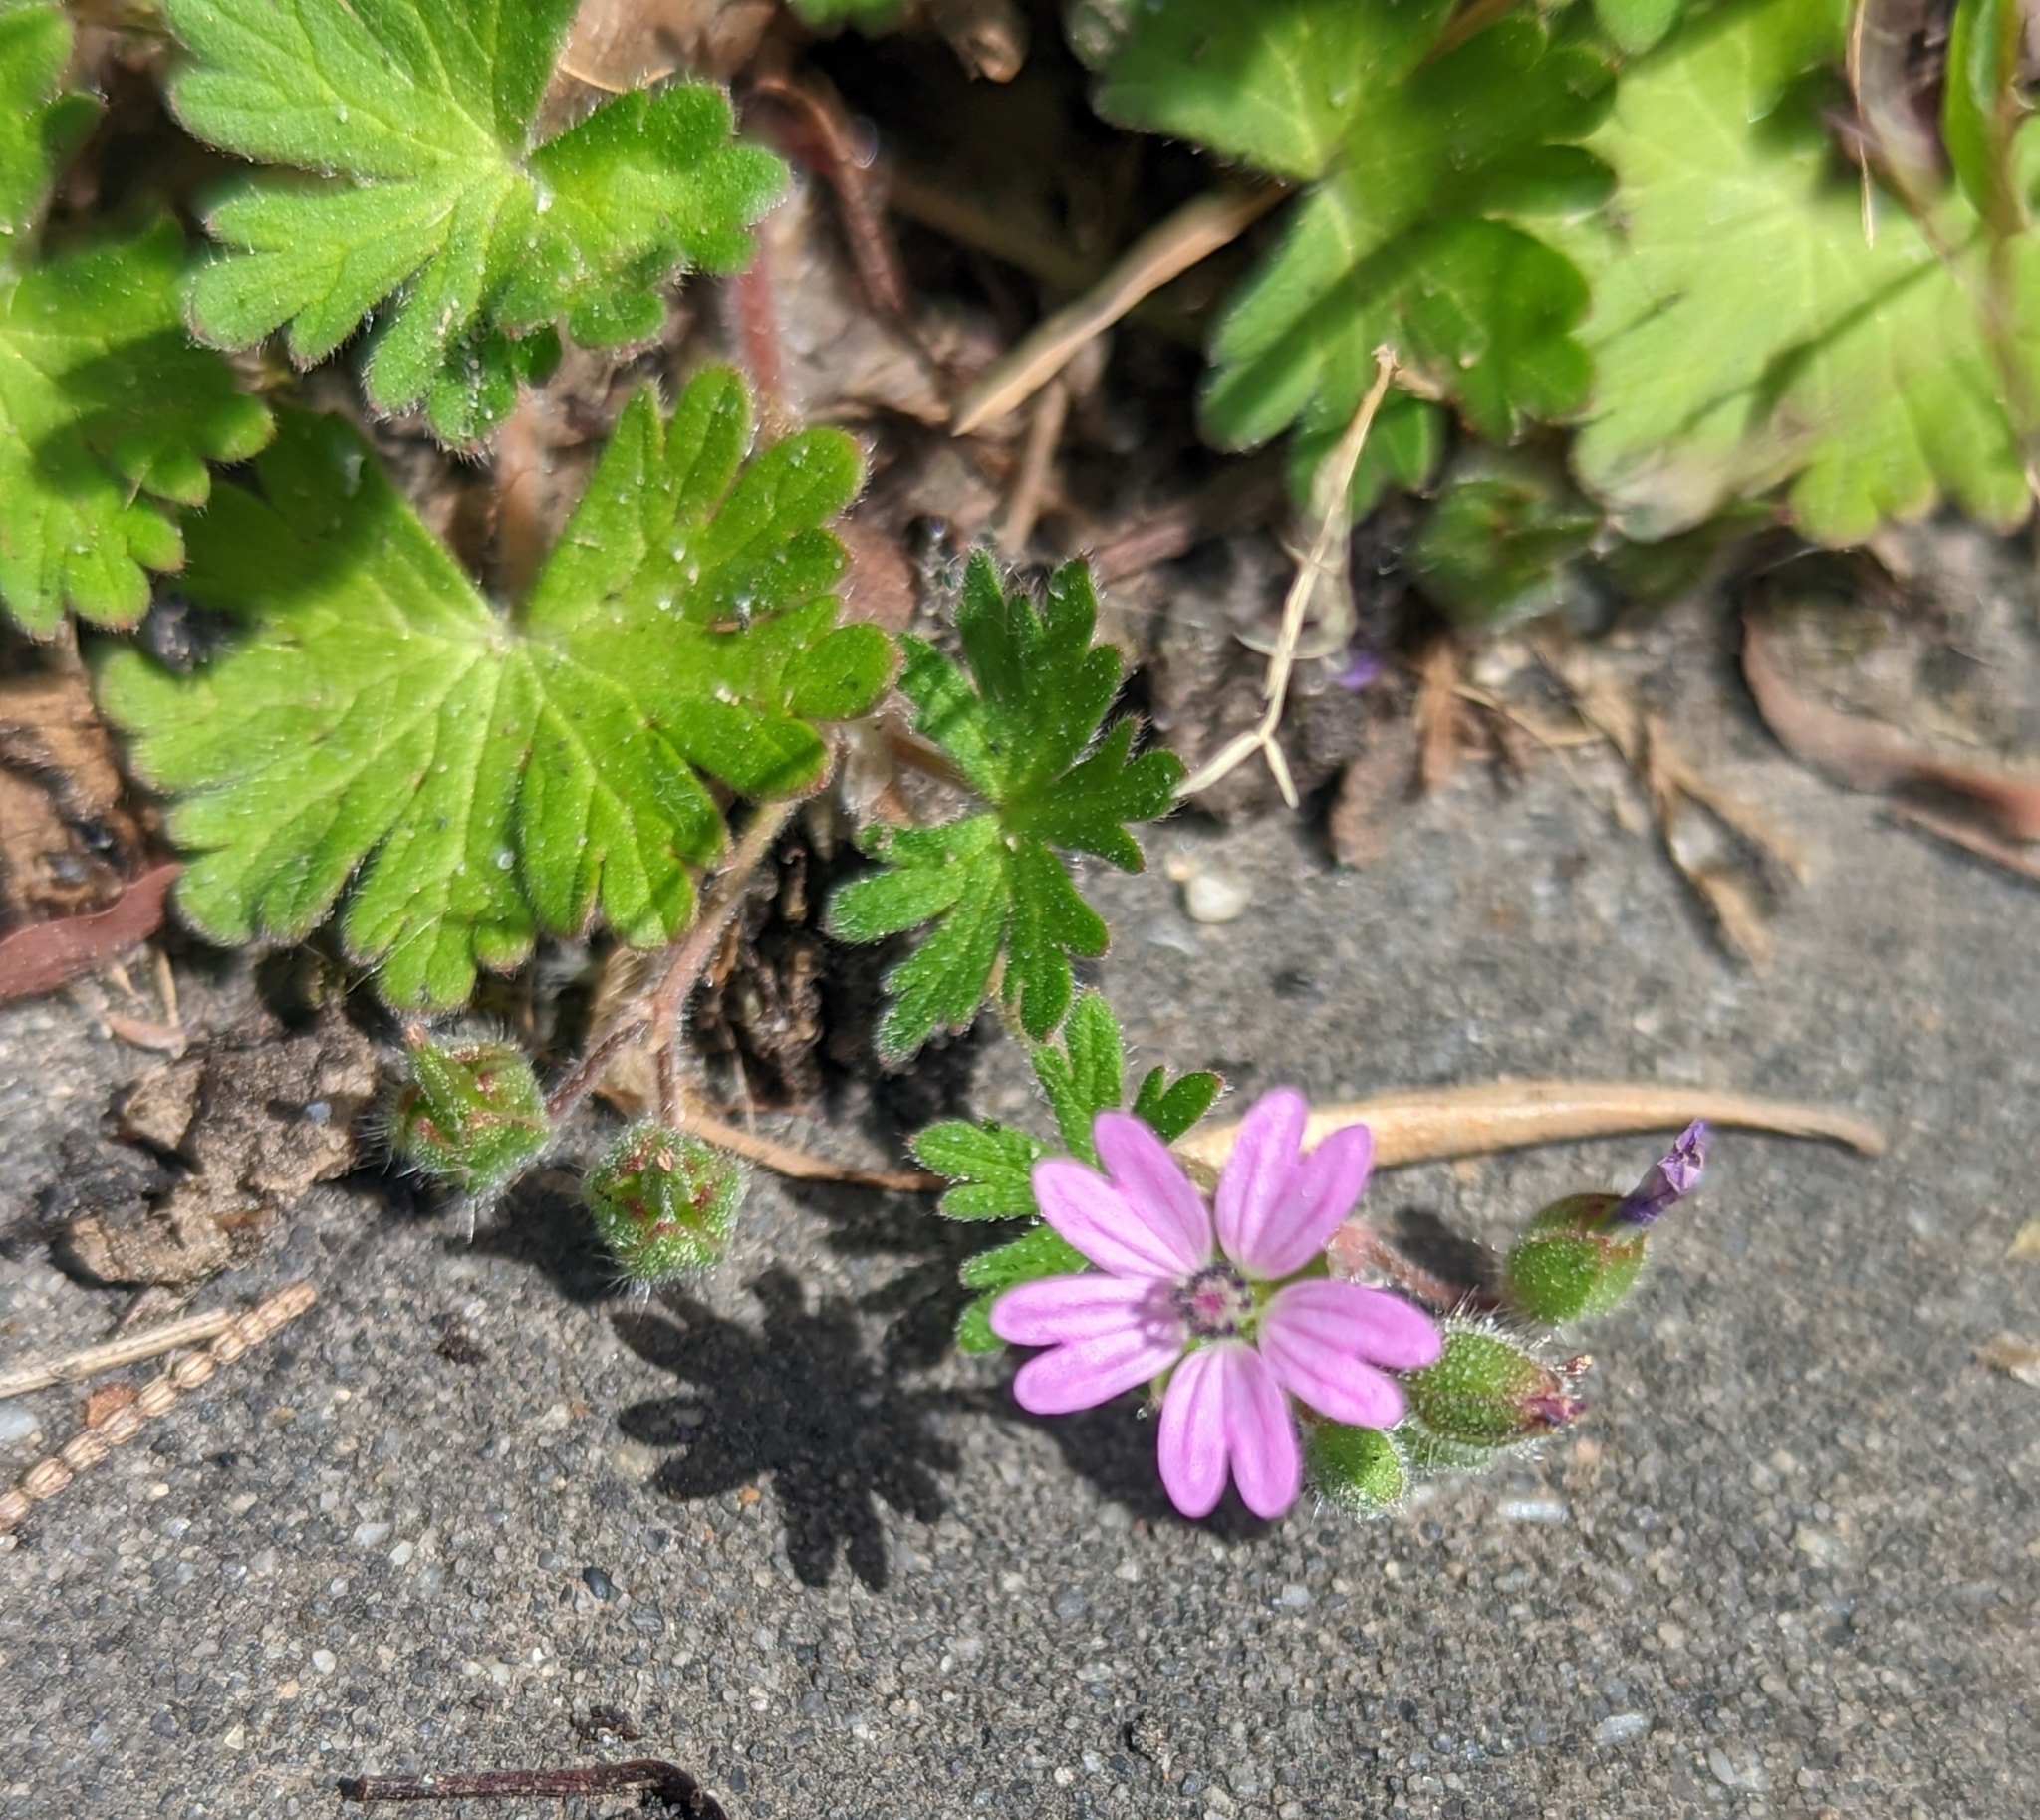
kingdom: Plantae
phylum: Tracheophyta
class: Magnoliopsida
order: Geraniales
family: Geraniaceae
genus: Geranium
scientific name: Geranium molle
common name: Dove's-foot crane's-bill
